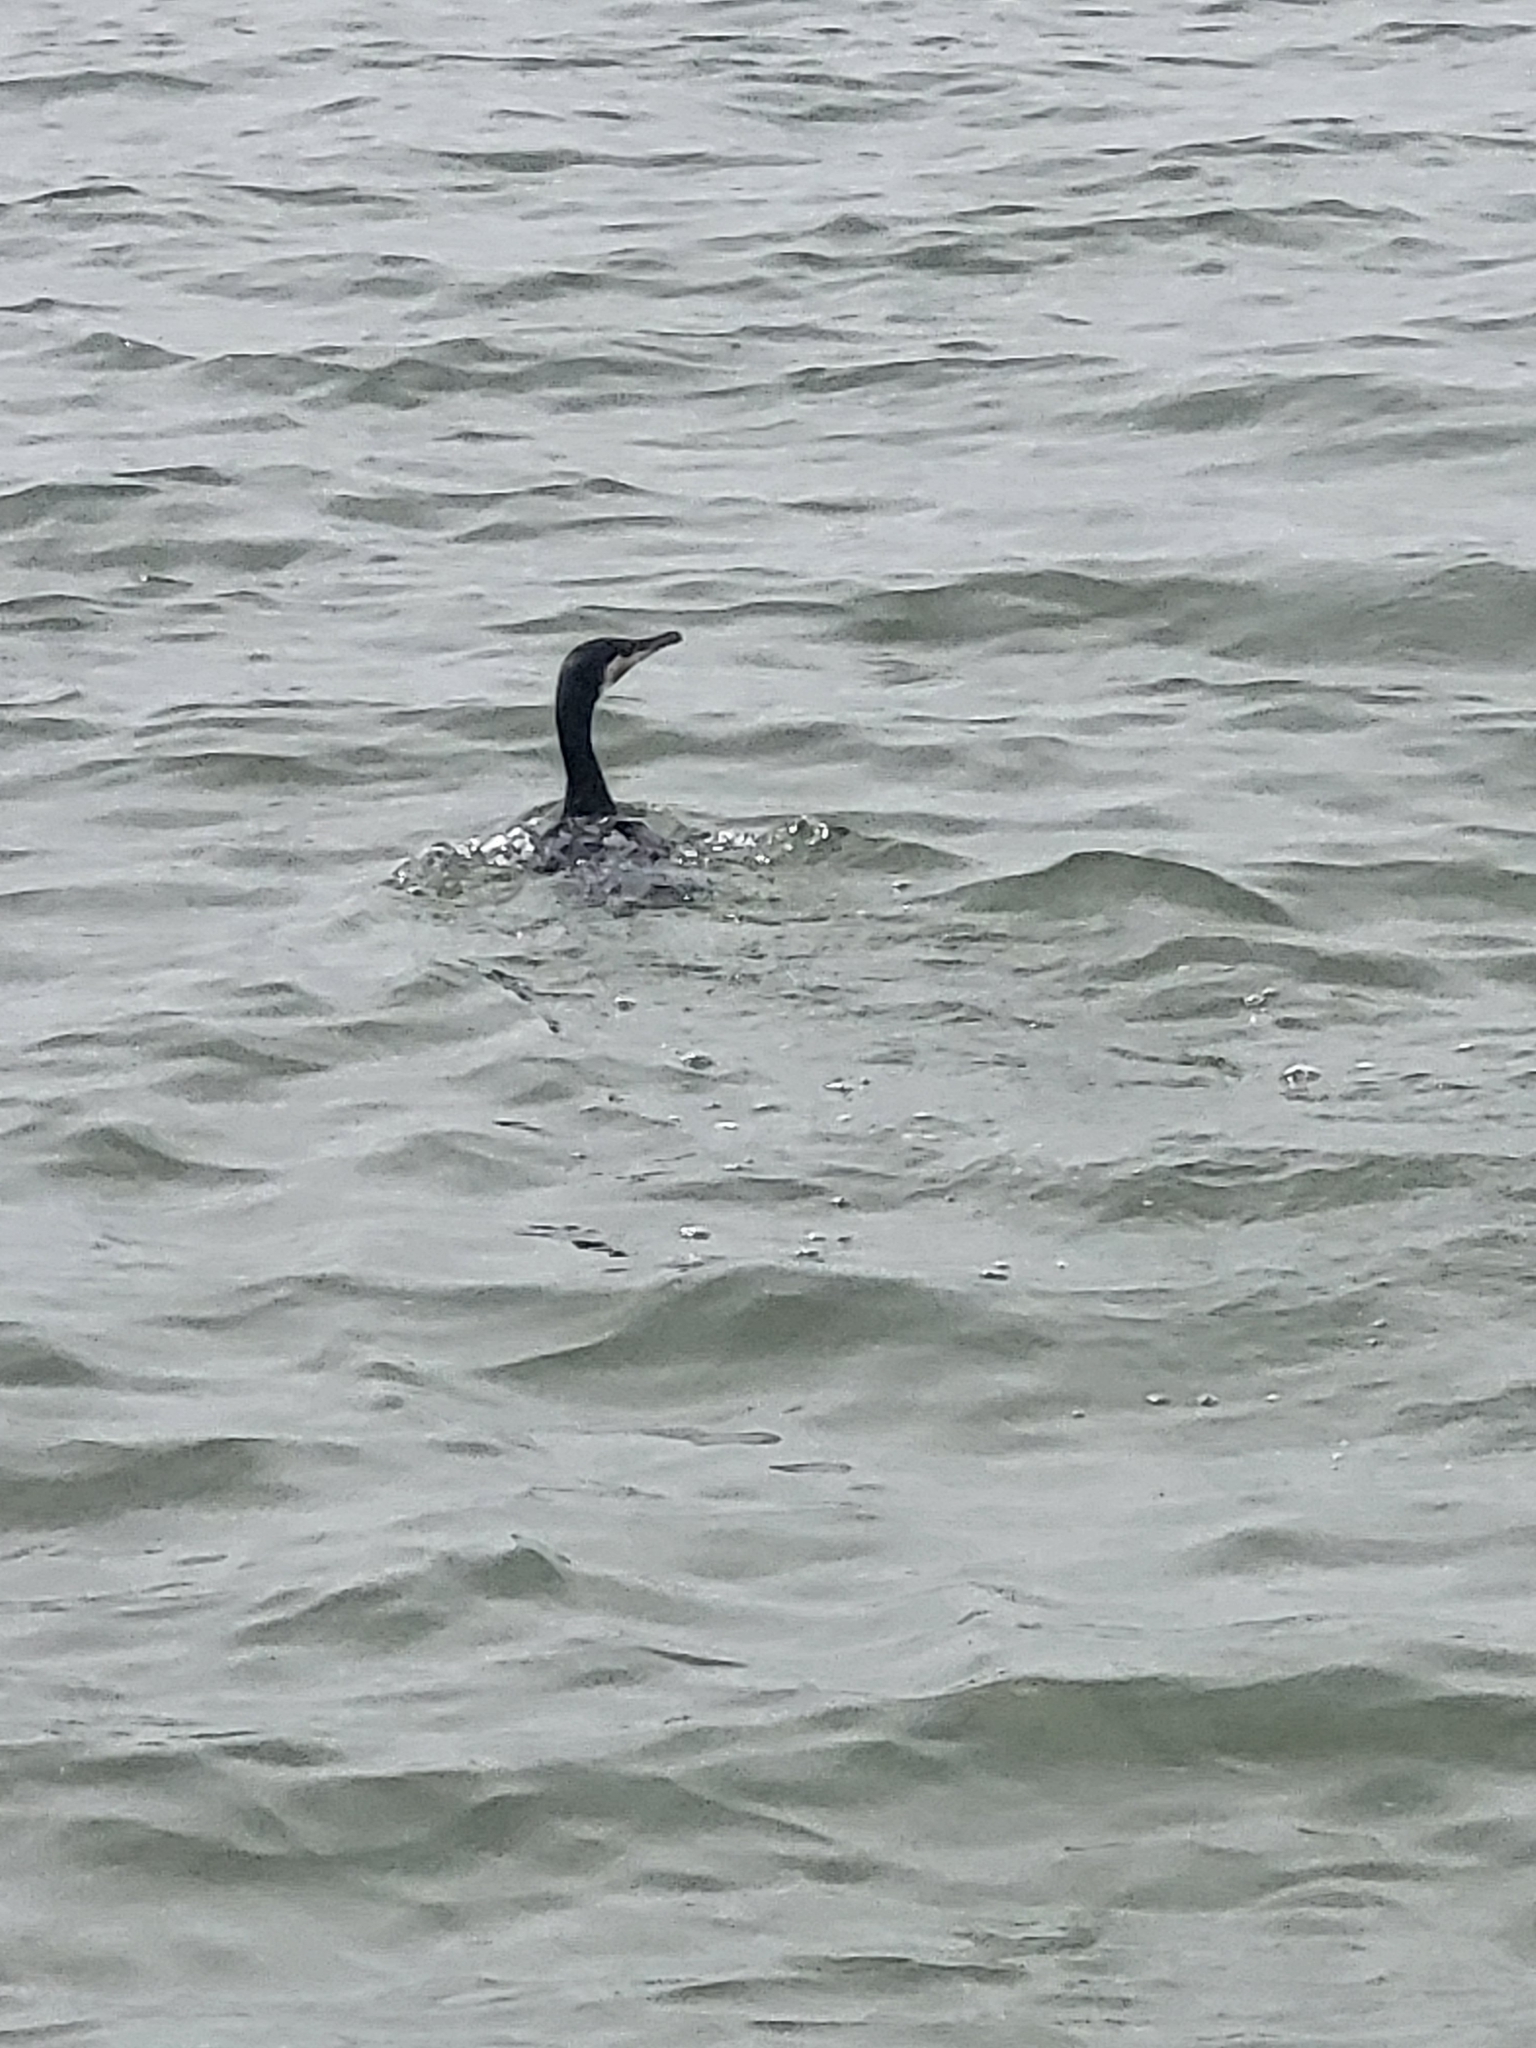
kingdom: Animalia
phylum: Chordata
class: Aves
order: Suliformes
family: Phalacrocoracidae
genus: Phalacrocorax
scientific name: Phalacrocorax carbo
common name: Great cormorant
